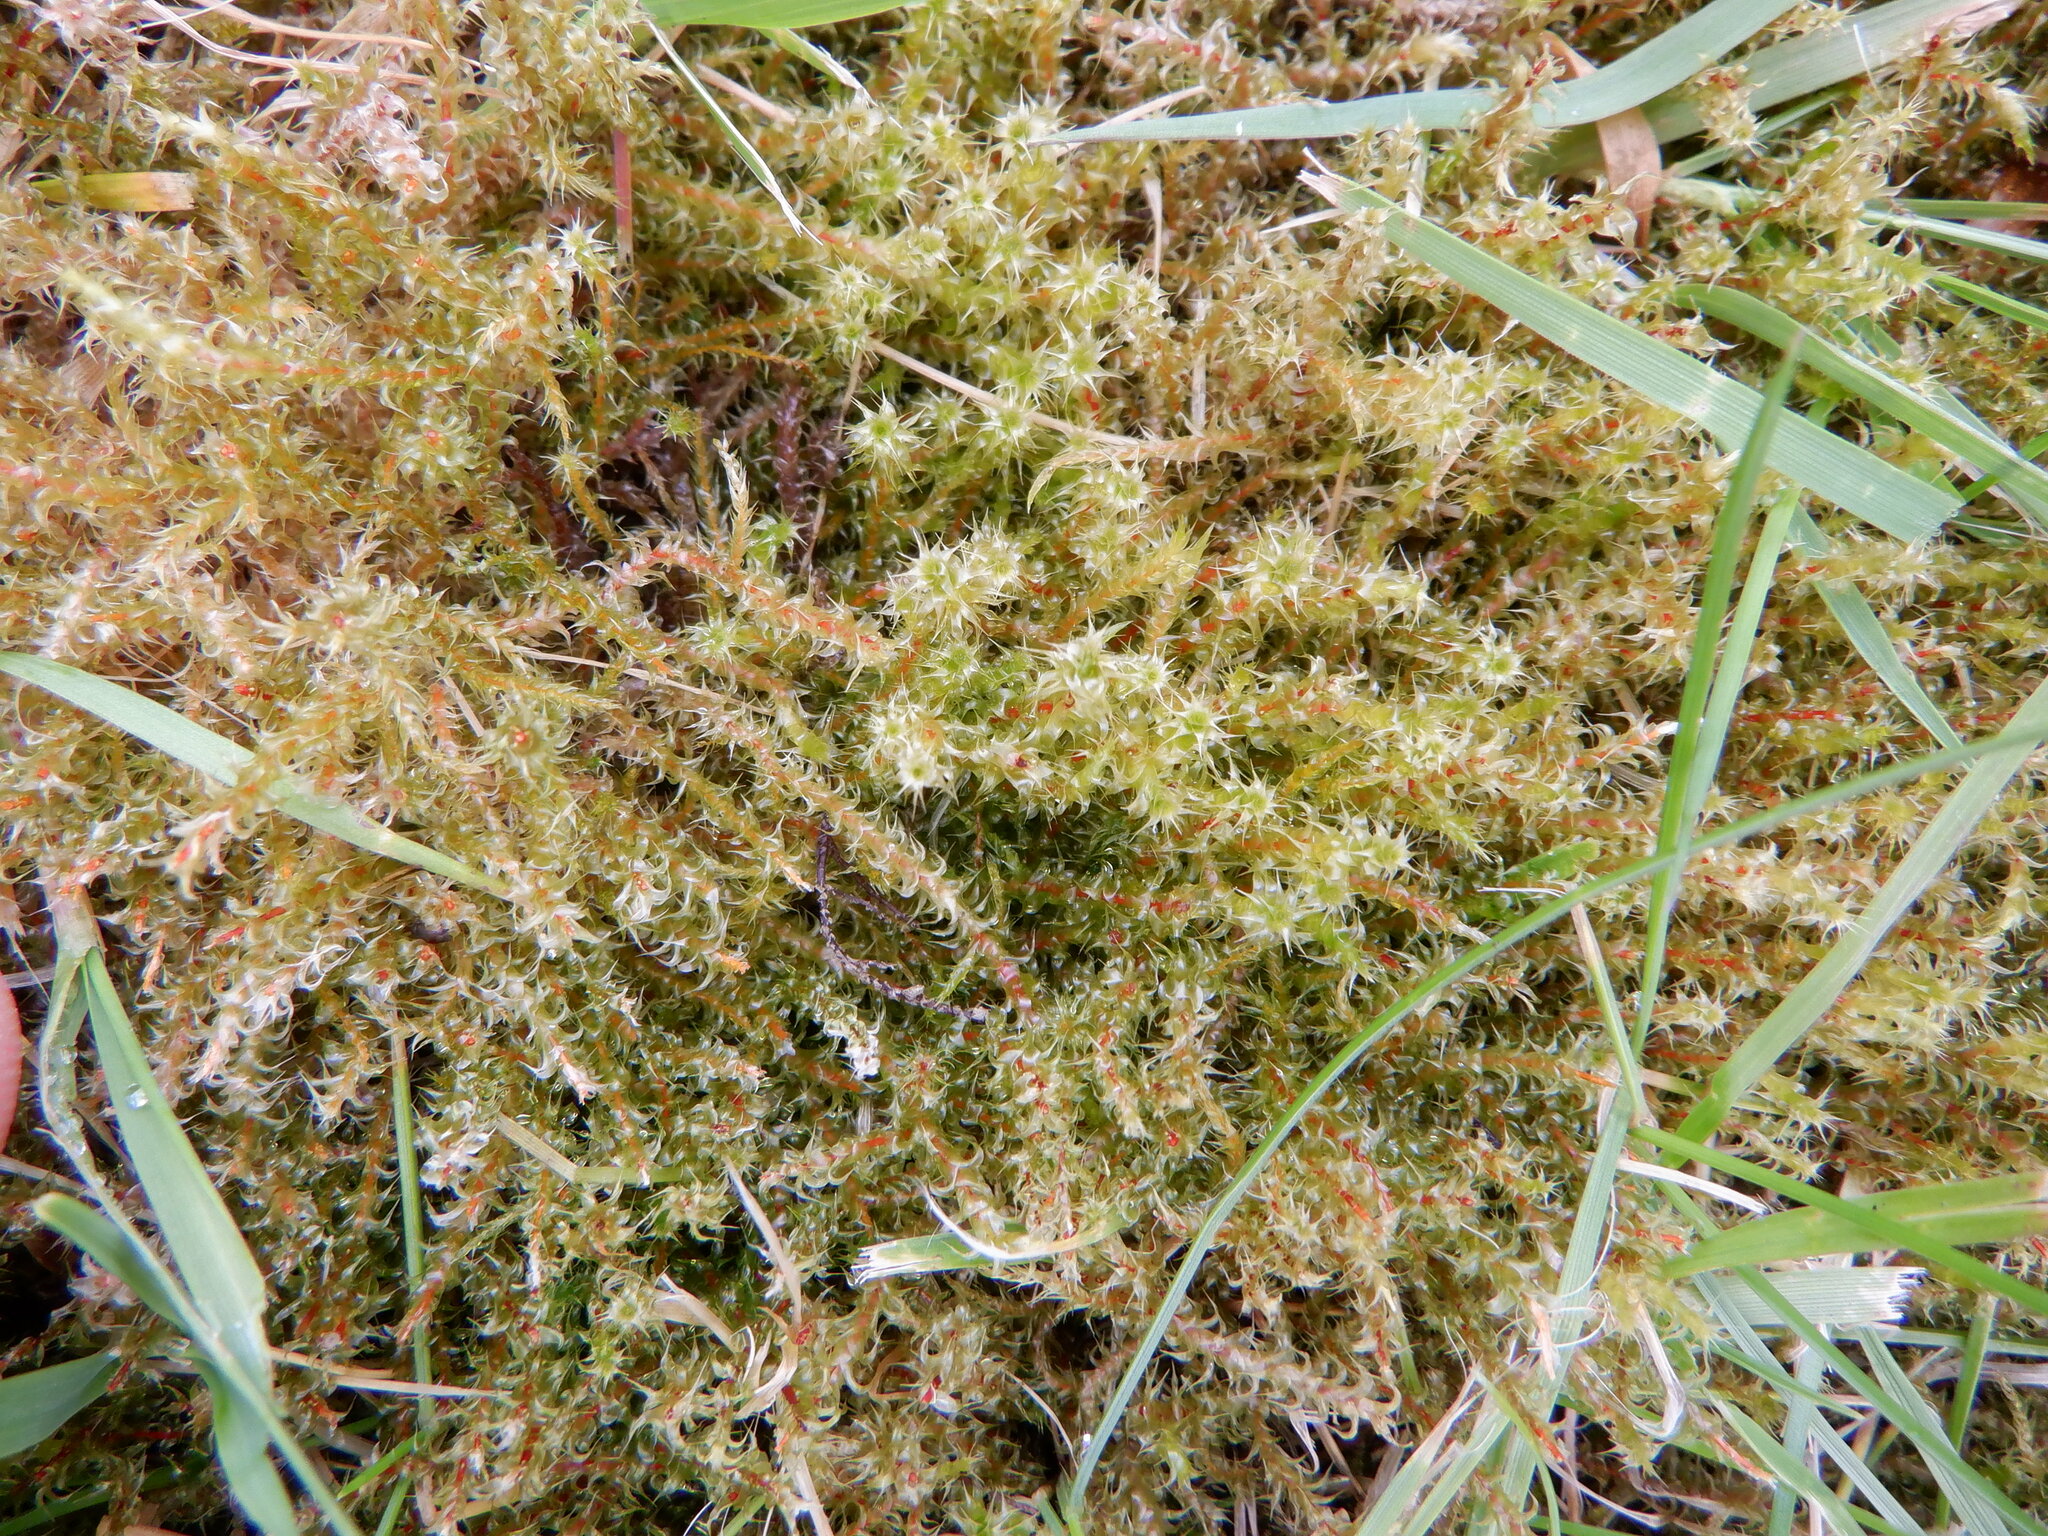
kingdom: Plantae
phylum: Bryophyta
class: Bryopsida
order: Hypnales
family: Hylocomiaceae
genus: Rhytidiadelphus
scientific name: Rhytidiadelphus squarrosus
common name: Springy turf-moss
